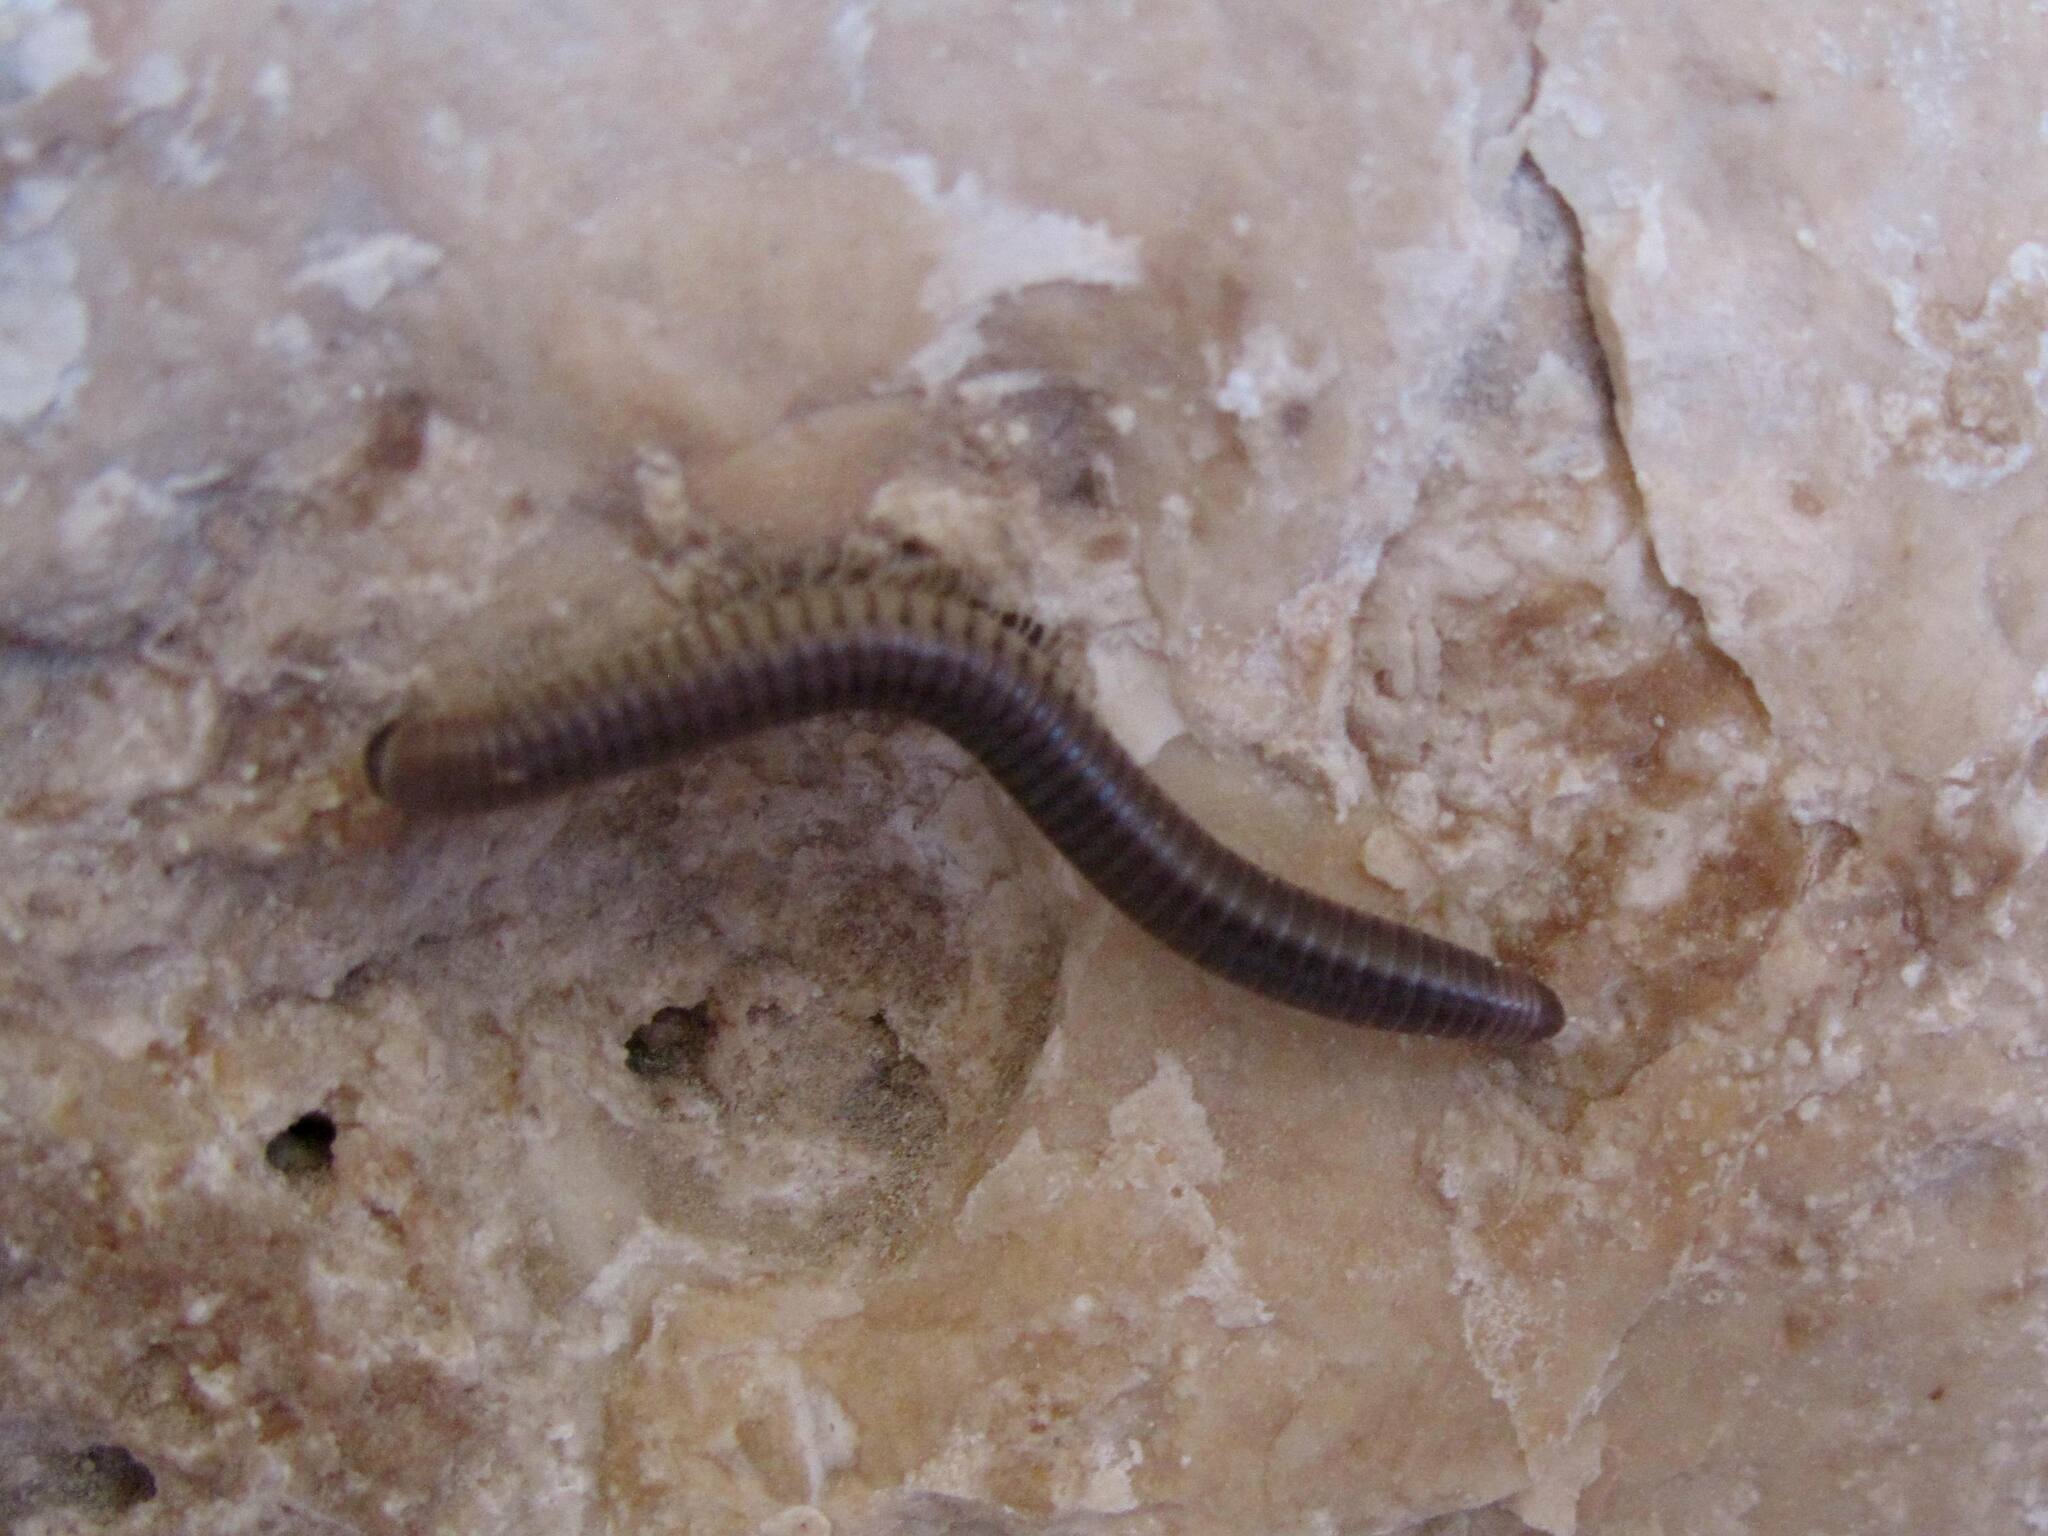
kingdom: Animalia
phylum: Arthropoda
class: Diplopoda
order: Julida
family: Julidae
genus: Pachyiulus
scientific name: Pachyiulus flavipes
